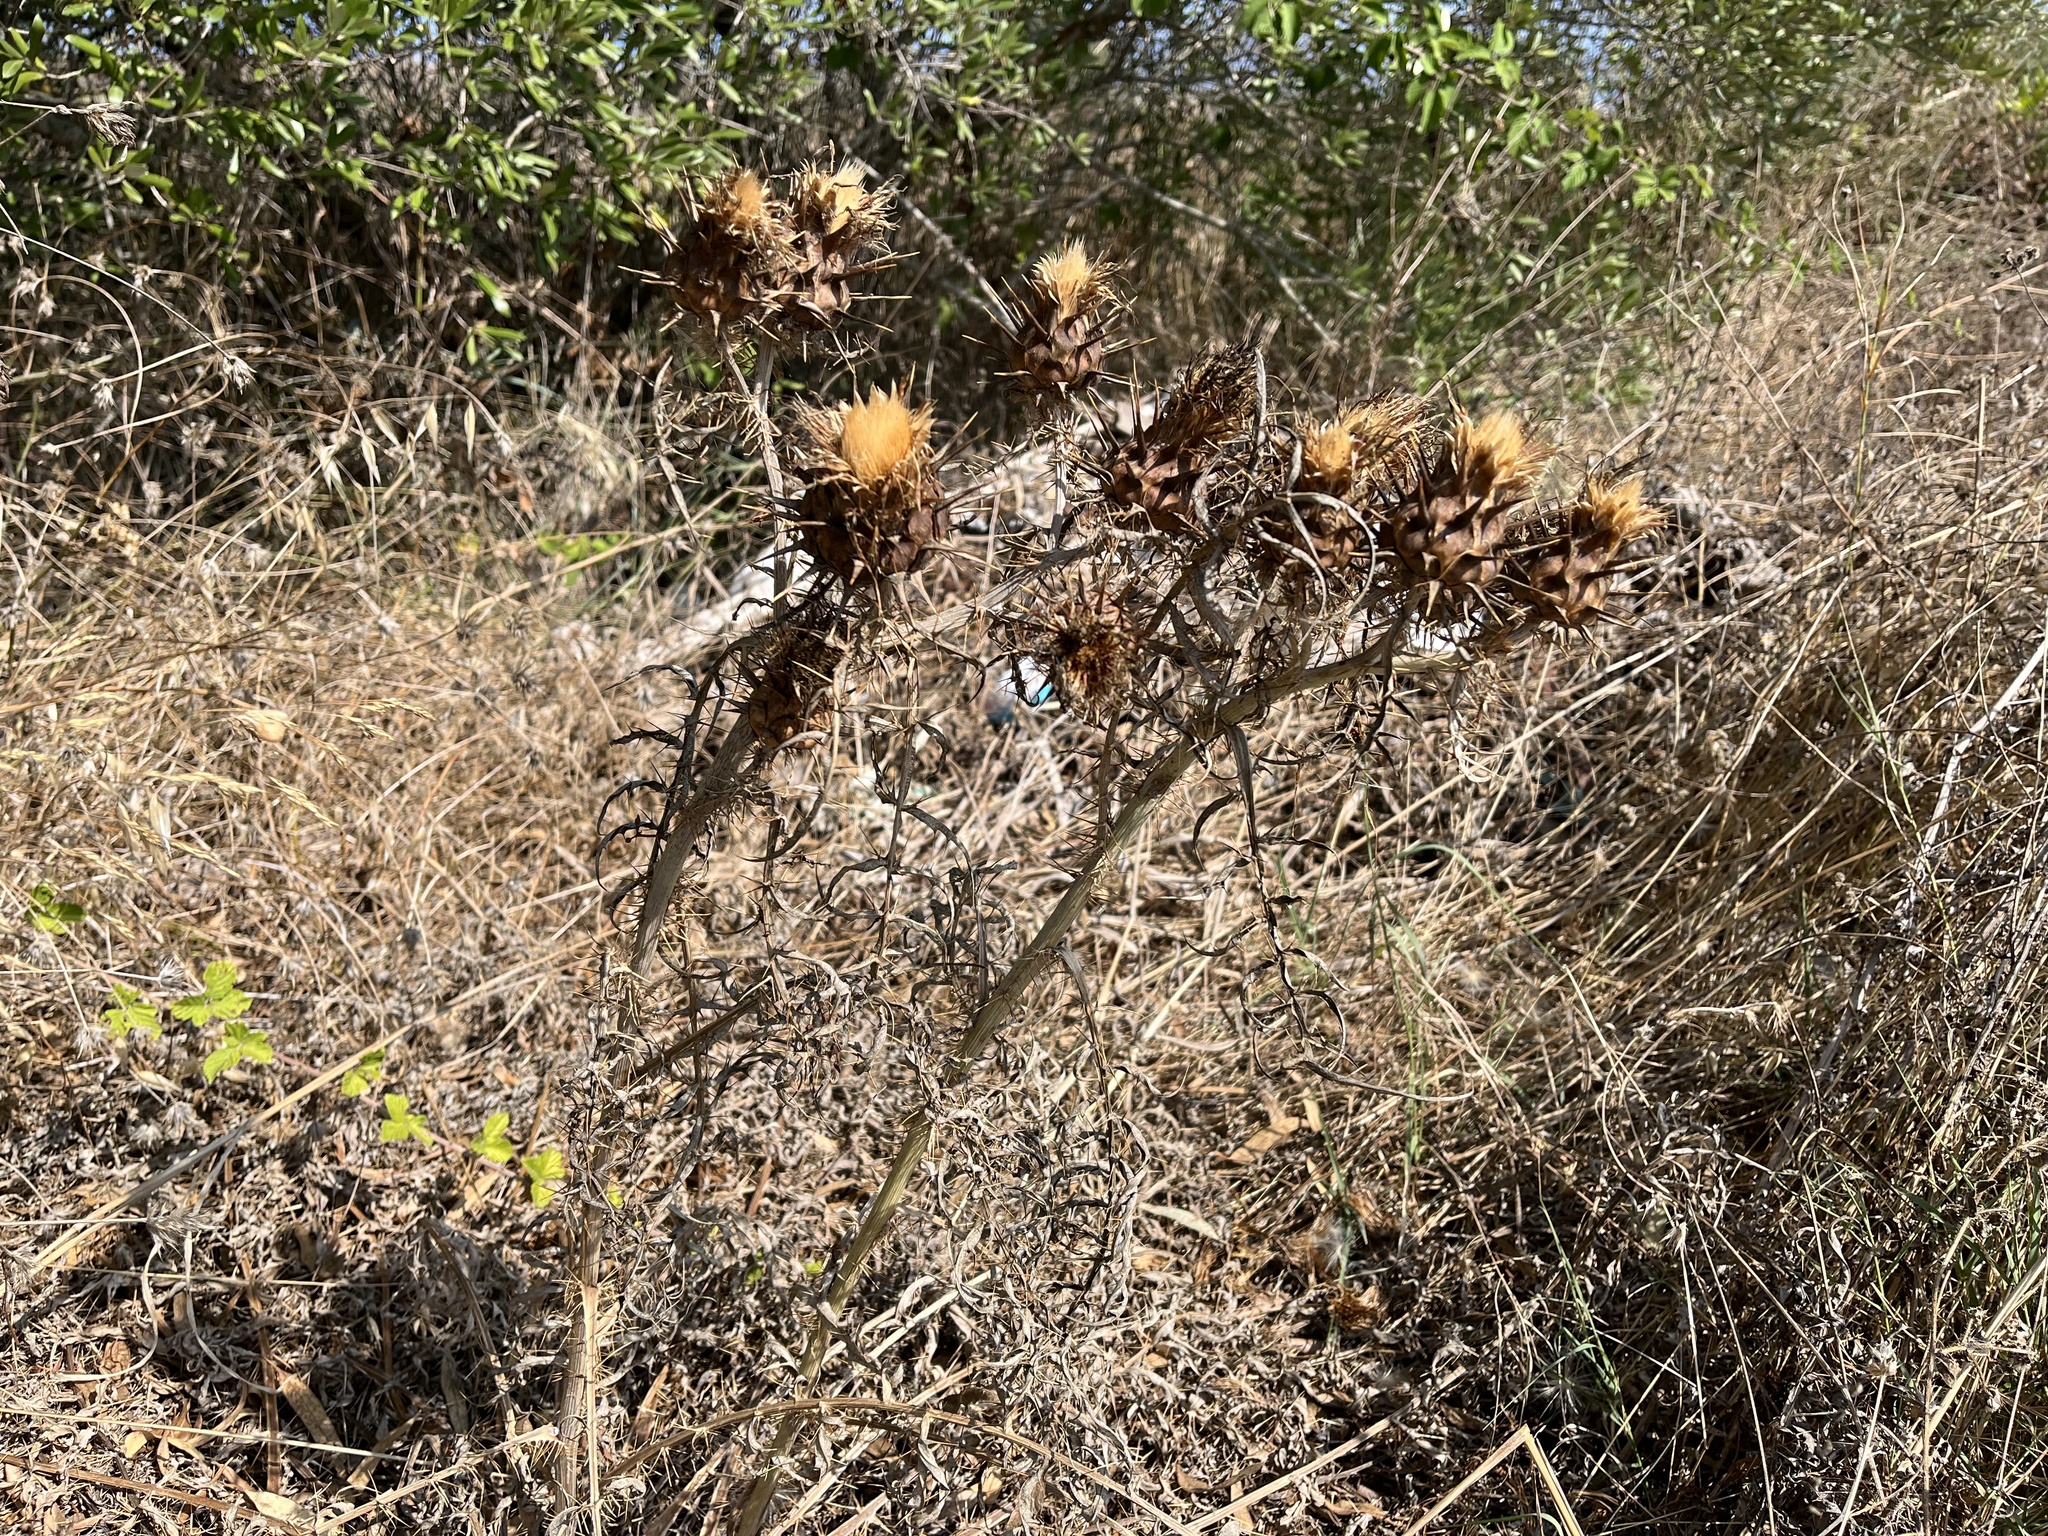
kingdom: Plantae
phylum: Tracheophyta
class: Magnoliopsida
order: Asterales
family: Asteraceae
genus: Cynara
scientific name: Cynara cardunculus
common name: Globe artichoke
